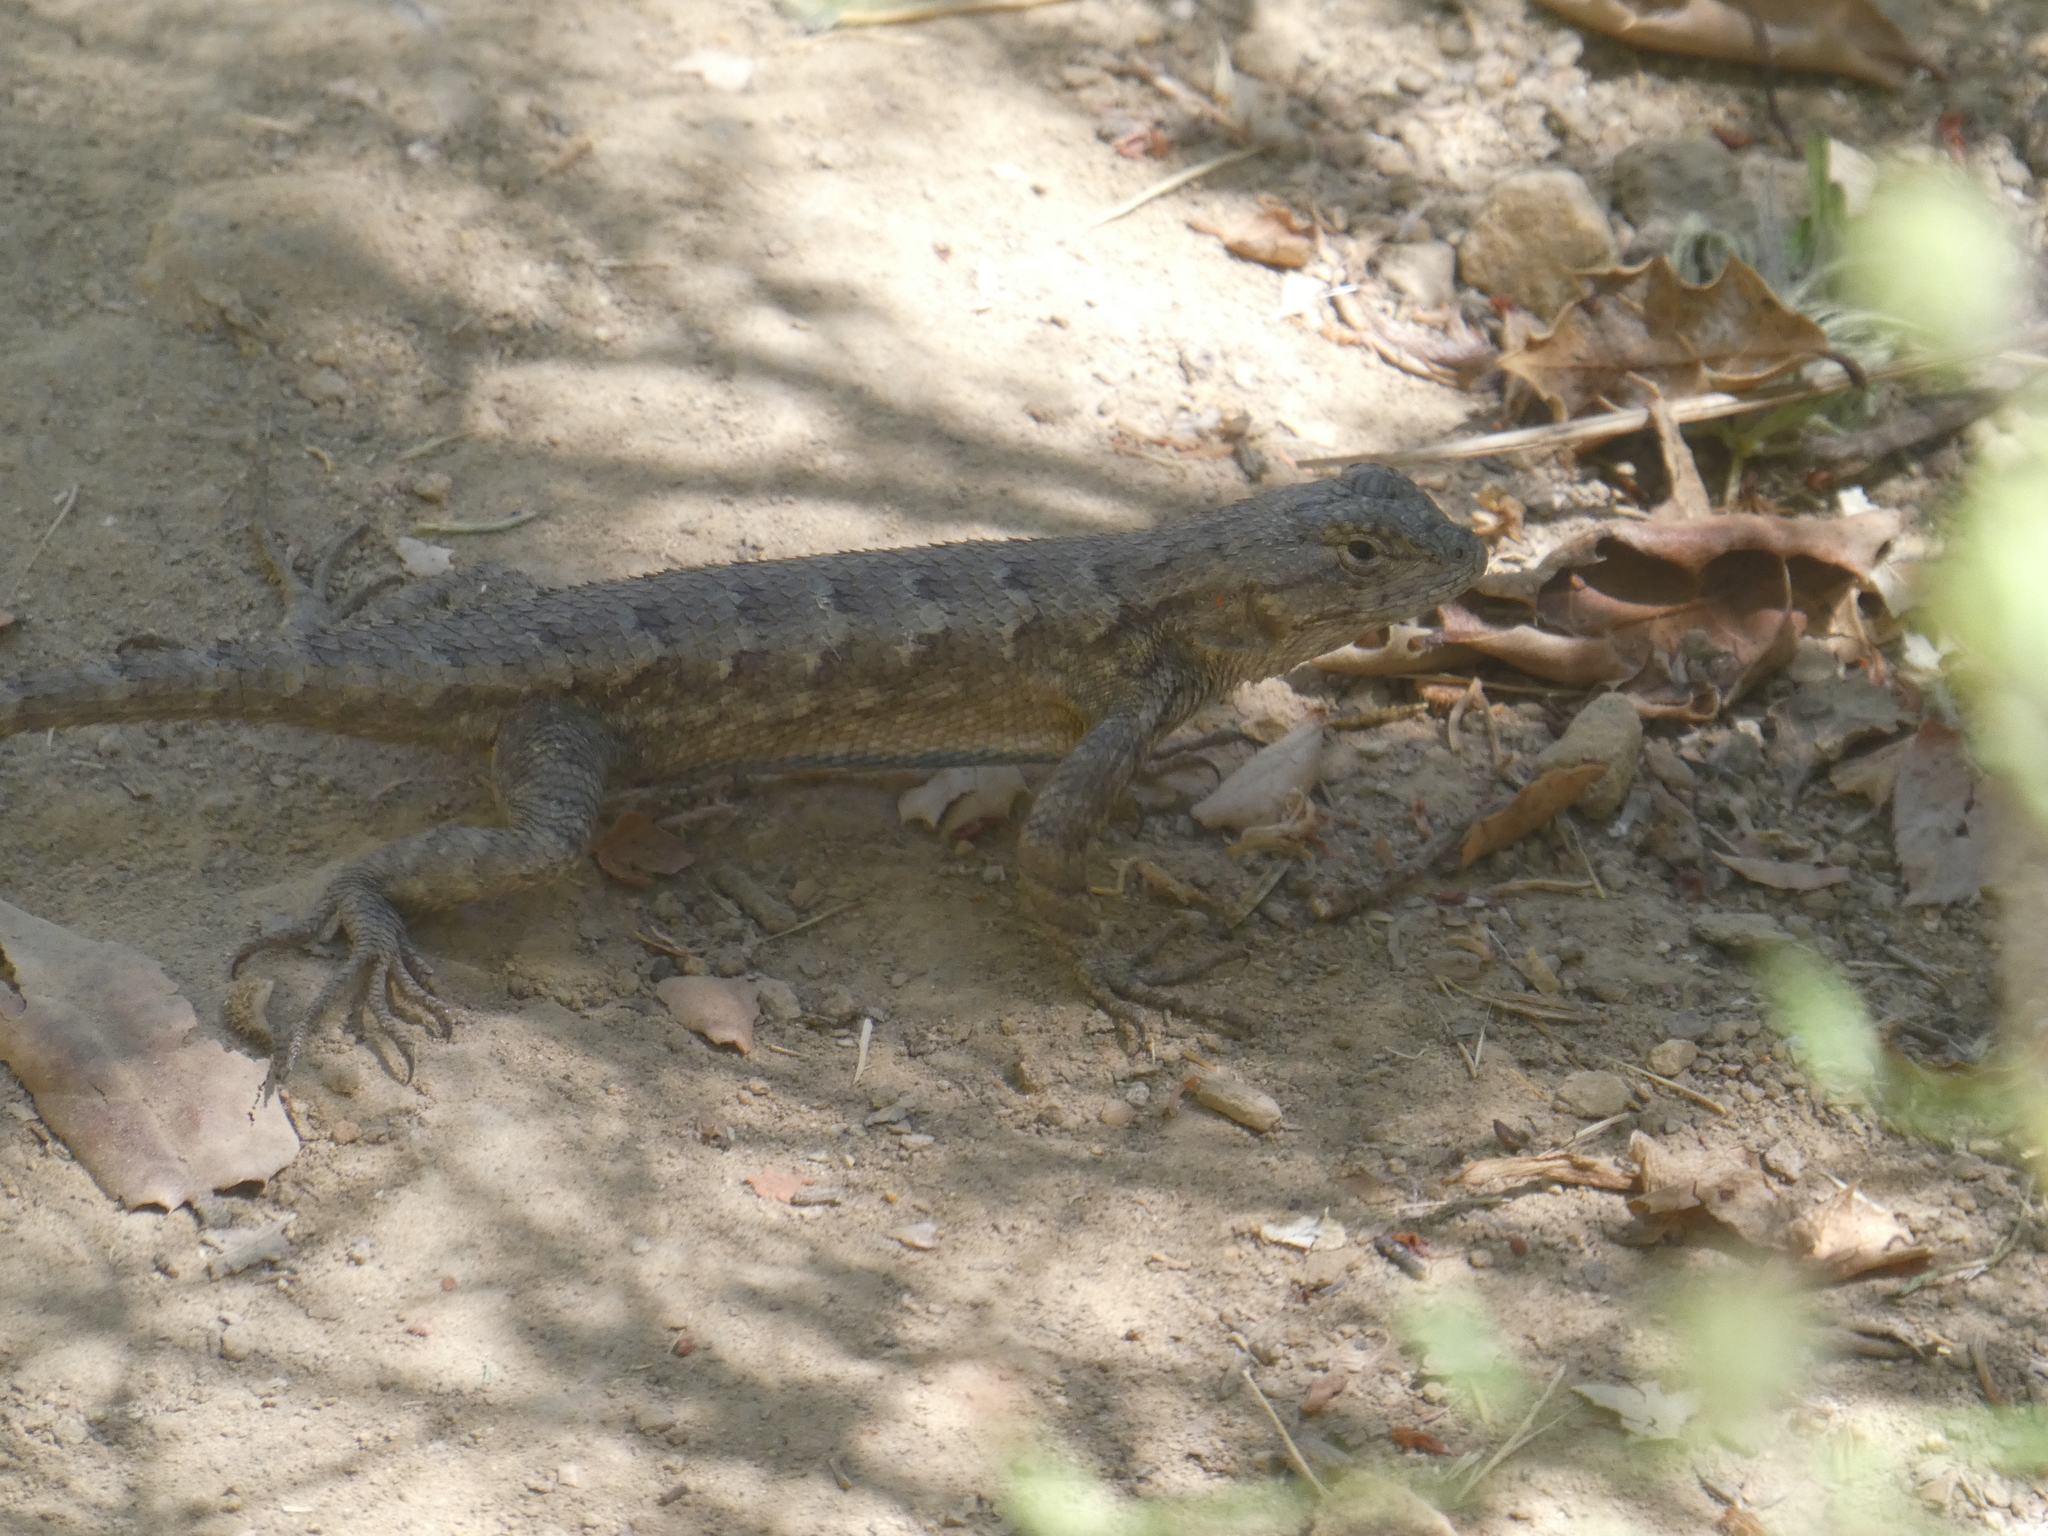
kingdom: Animalia
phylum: Chordata
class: Squamata
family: Phrynosomatidae
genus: Sceloporus
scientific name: Sceloporus occidentalis
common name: Western fence lizard
